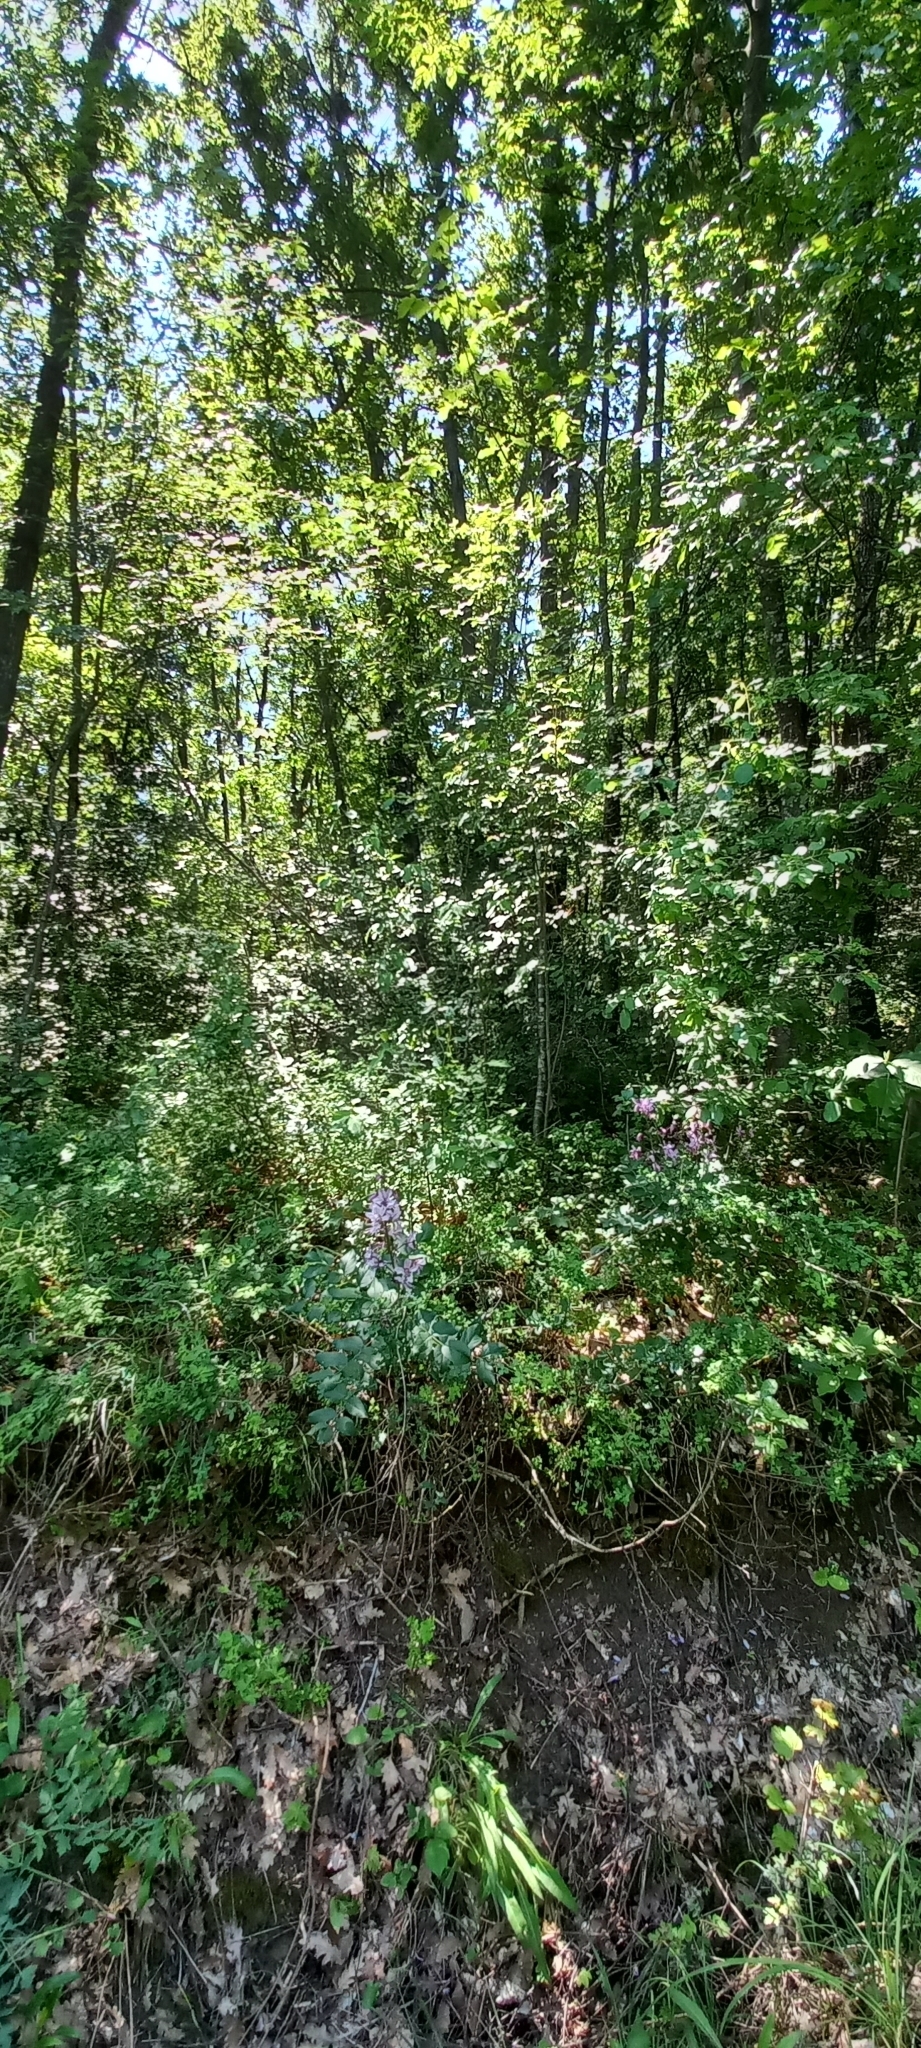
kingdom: Plantae
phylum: Tracheophyta
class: Magnoliopsida
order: Sapindales
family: Rutaceae
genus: Dictamnus
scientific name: Dictamnus albus
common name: Gasplant
